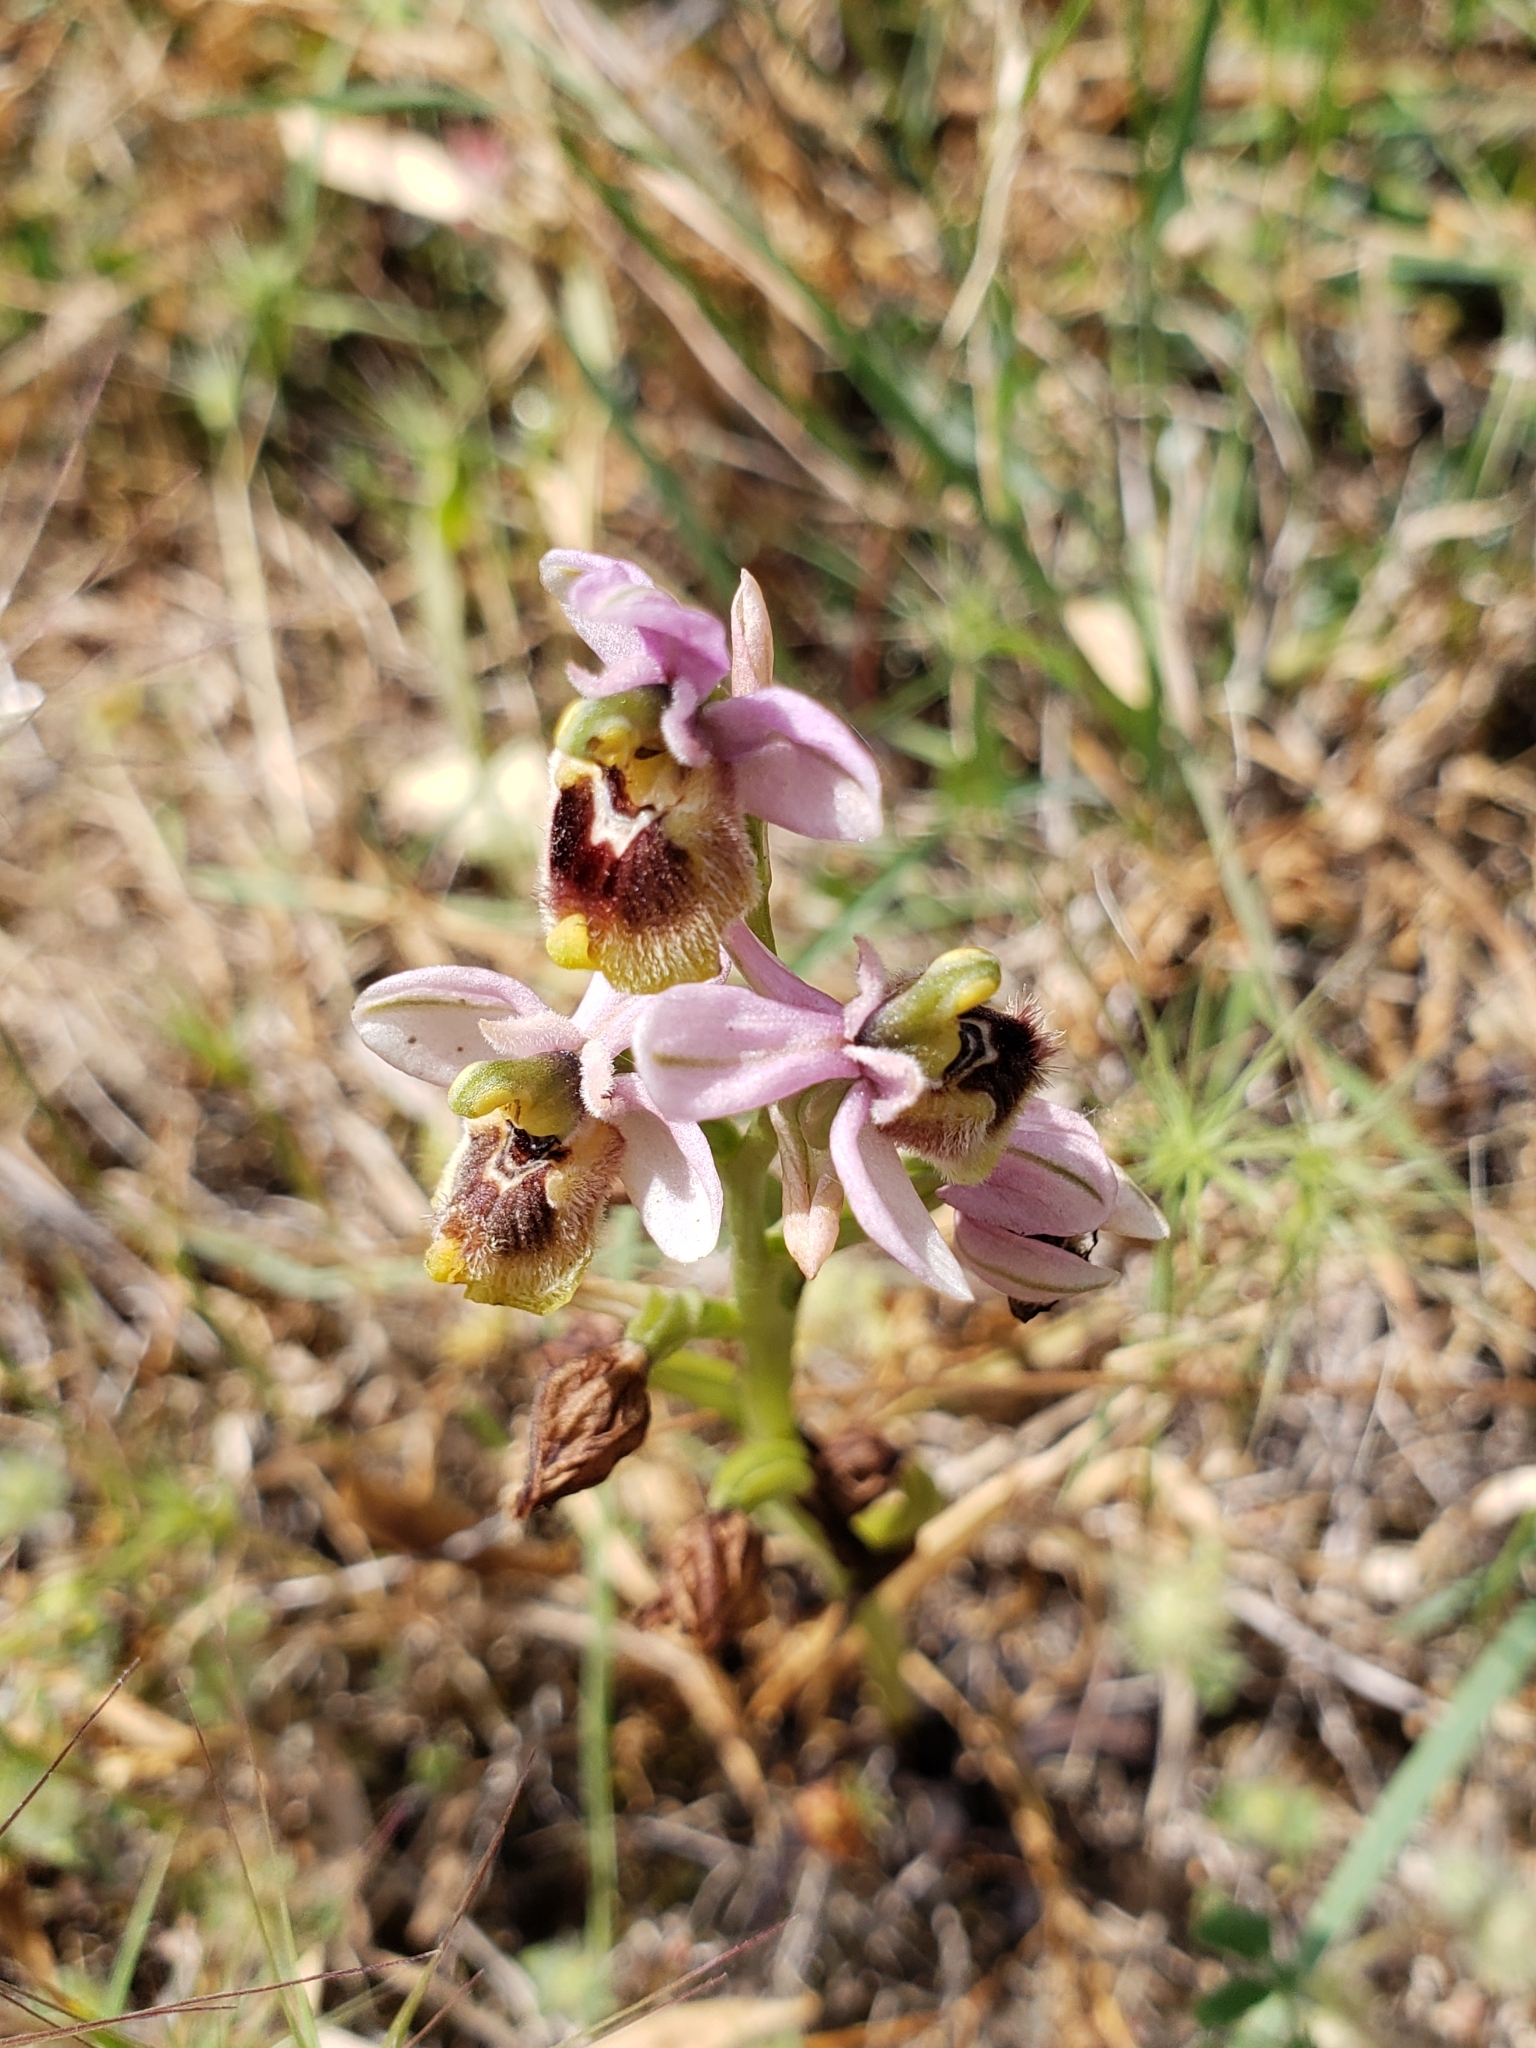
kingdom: Plantae
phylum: Tracheophyta
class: Liliopsida
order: Asparagales
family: Orchidaceae
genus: Ophrys
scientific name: Ophrys tenthredinifera
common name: Sawfly orchid
